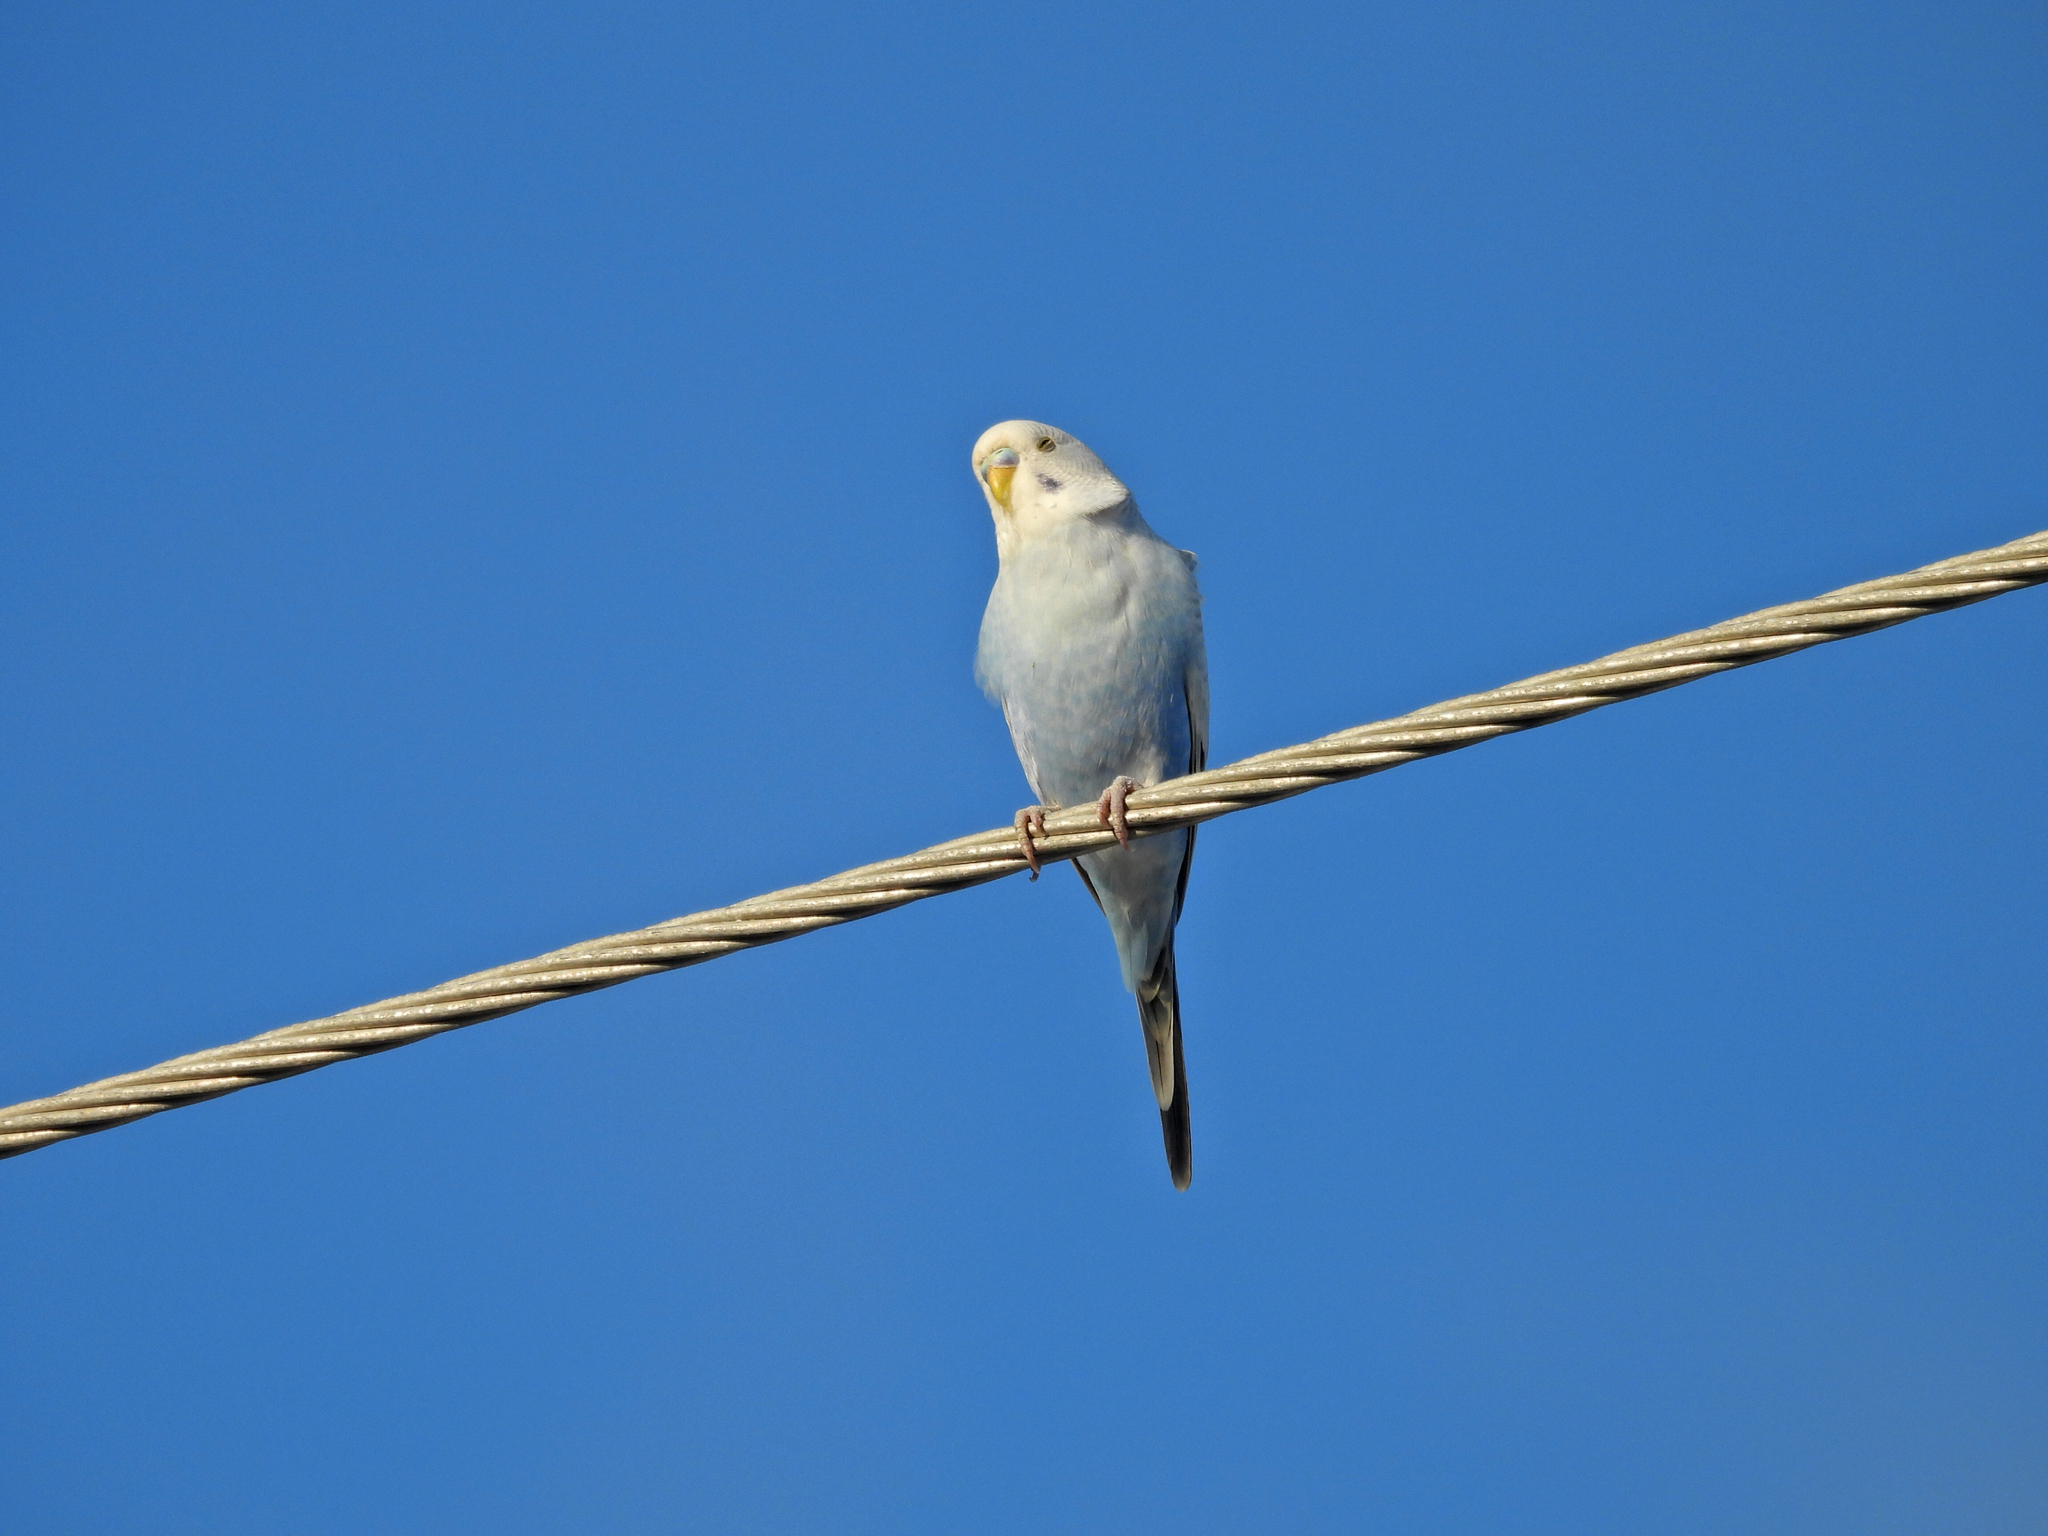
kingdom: Animalia
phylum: Chordata
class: Aves
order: Psittaciformes
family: Psittacidae
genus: Melopsittacus
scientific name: Melopsittacus undulatus
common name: Budgerigar
